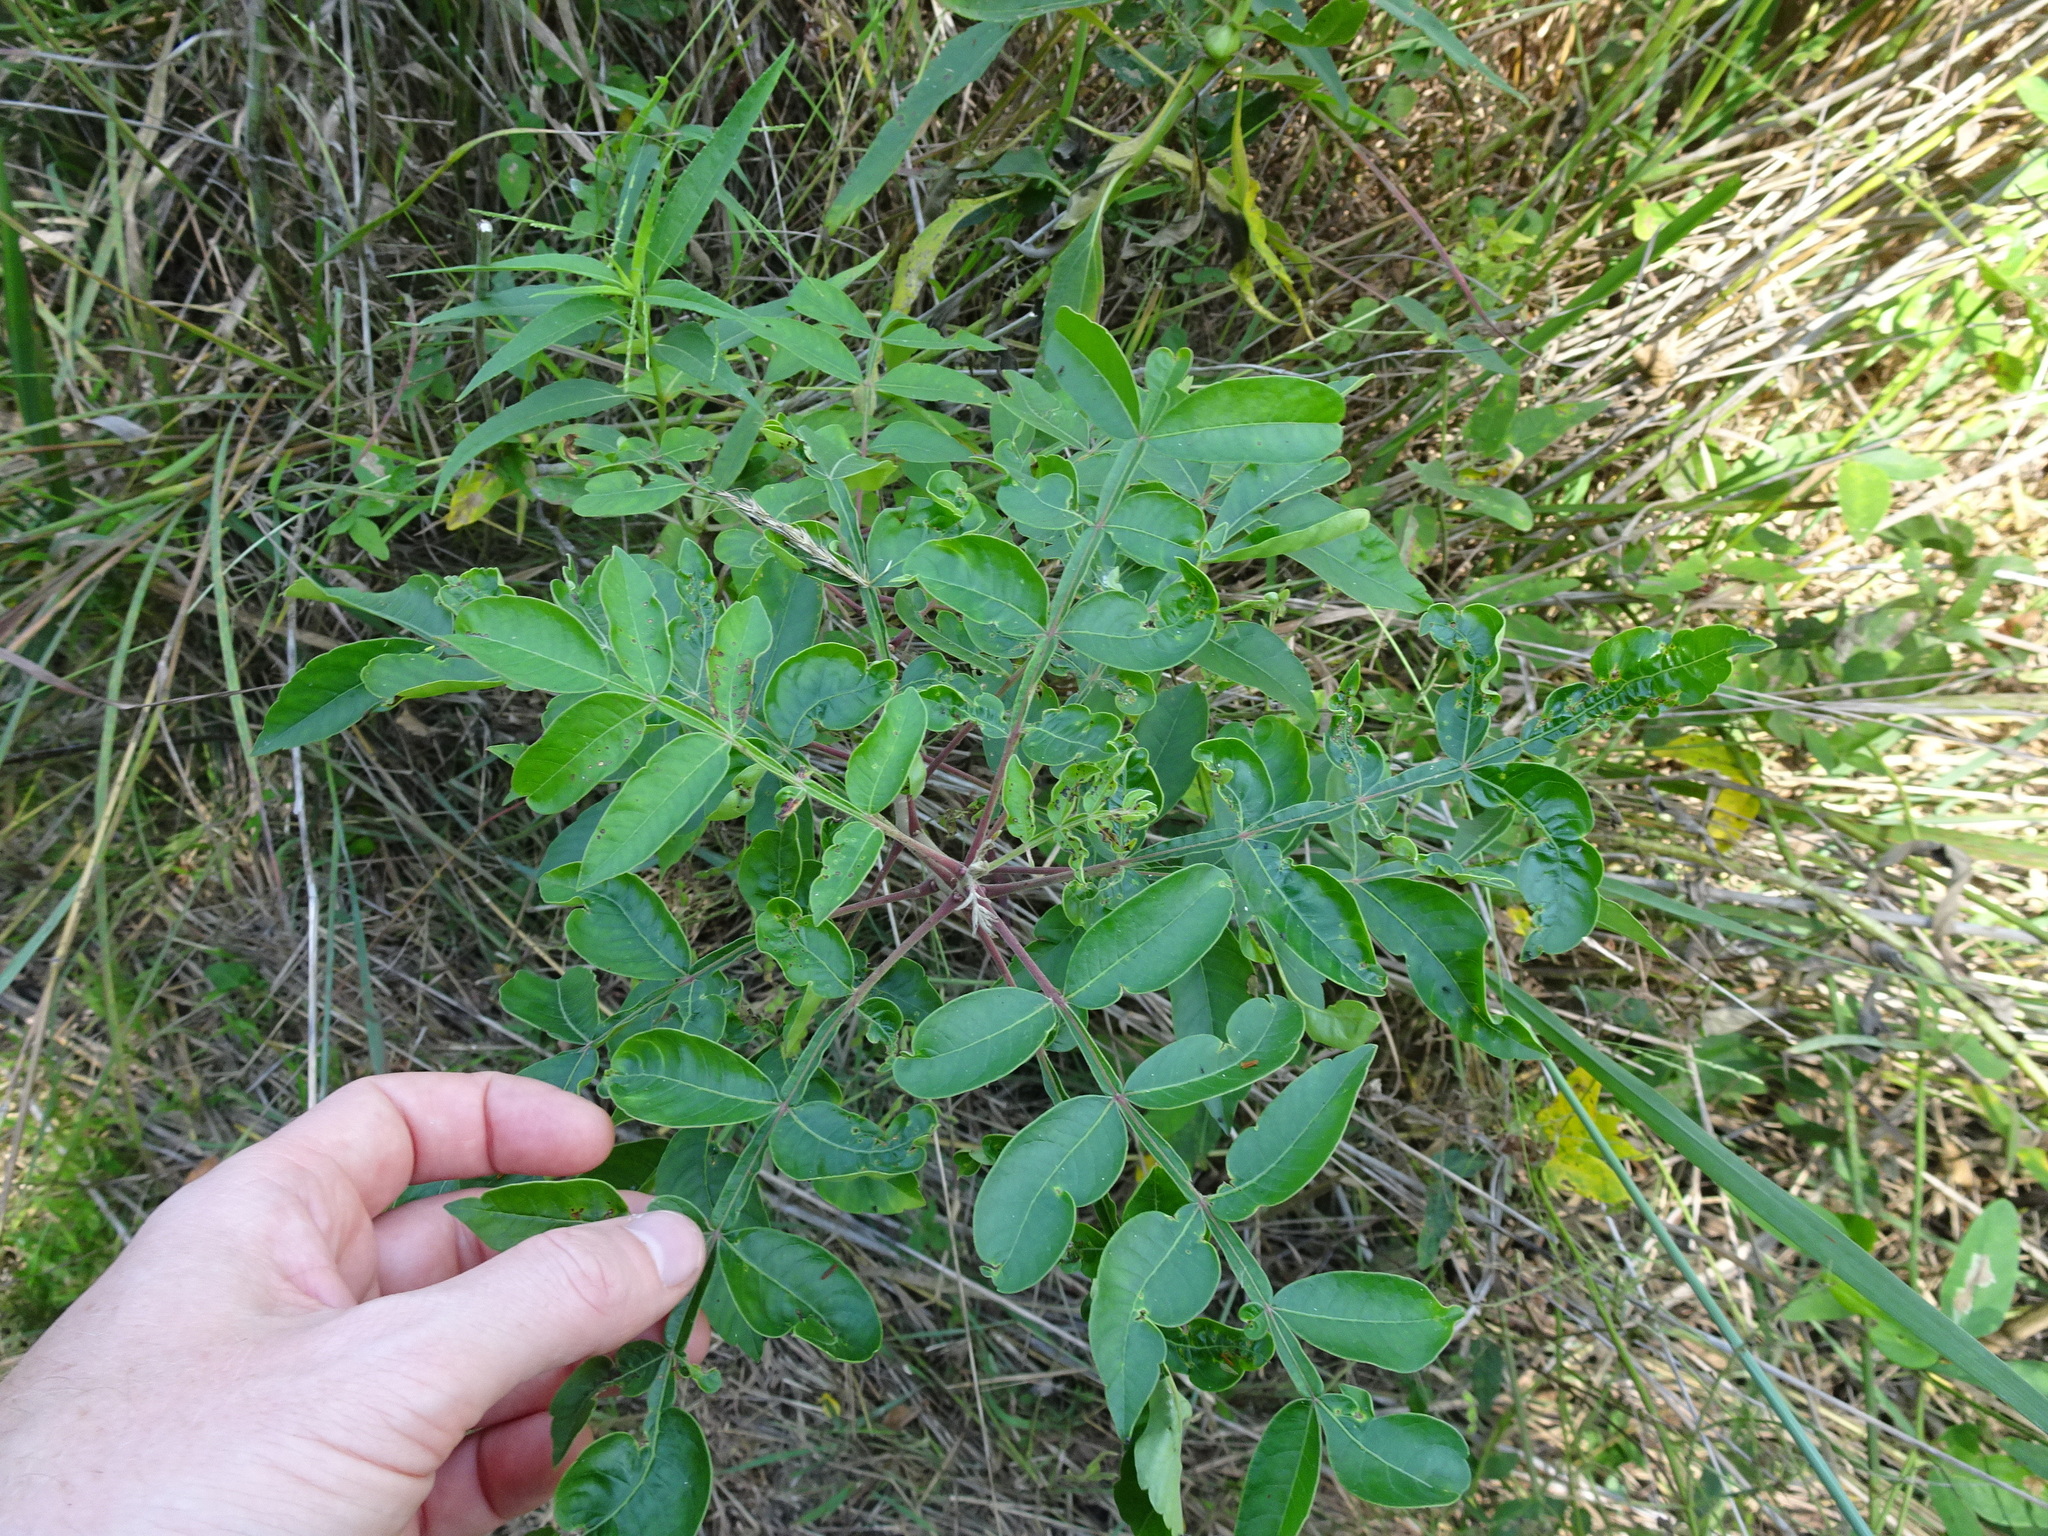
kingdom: Plantae
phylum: Tracheophyta
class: Magnoliopsida
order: Sapindales
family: Anacardiaceae
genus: Rhus
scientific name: Rhus copallina
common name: Shining sumac
